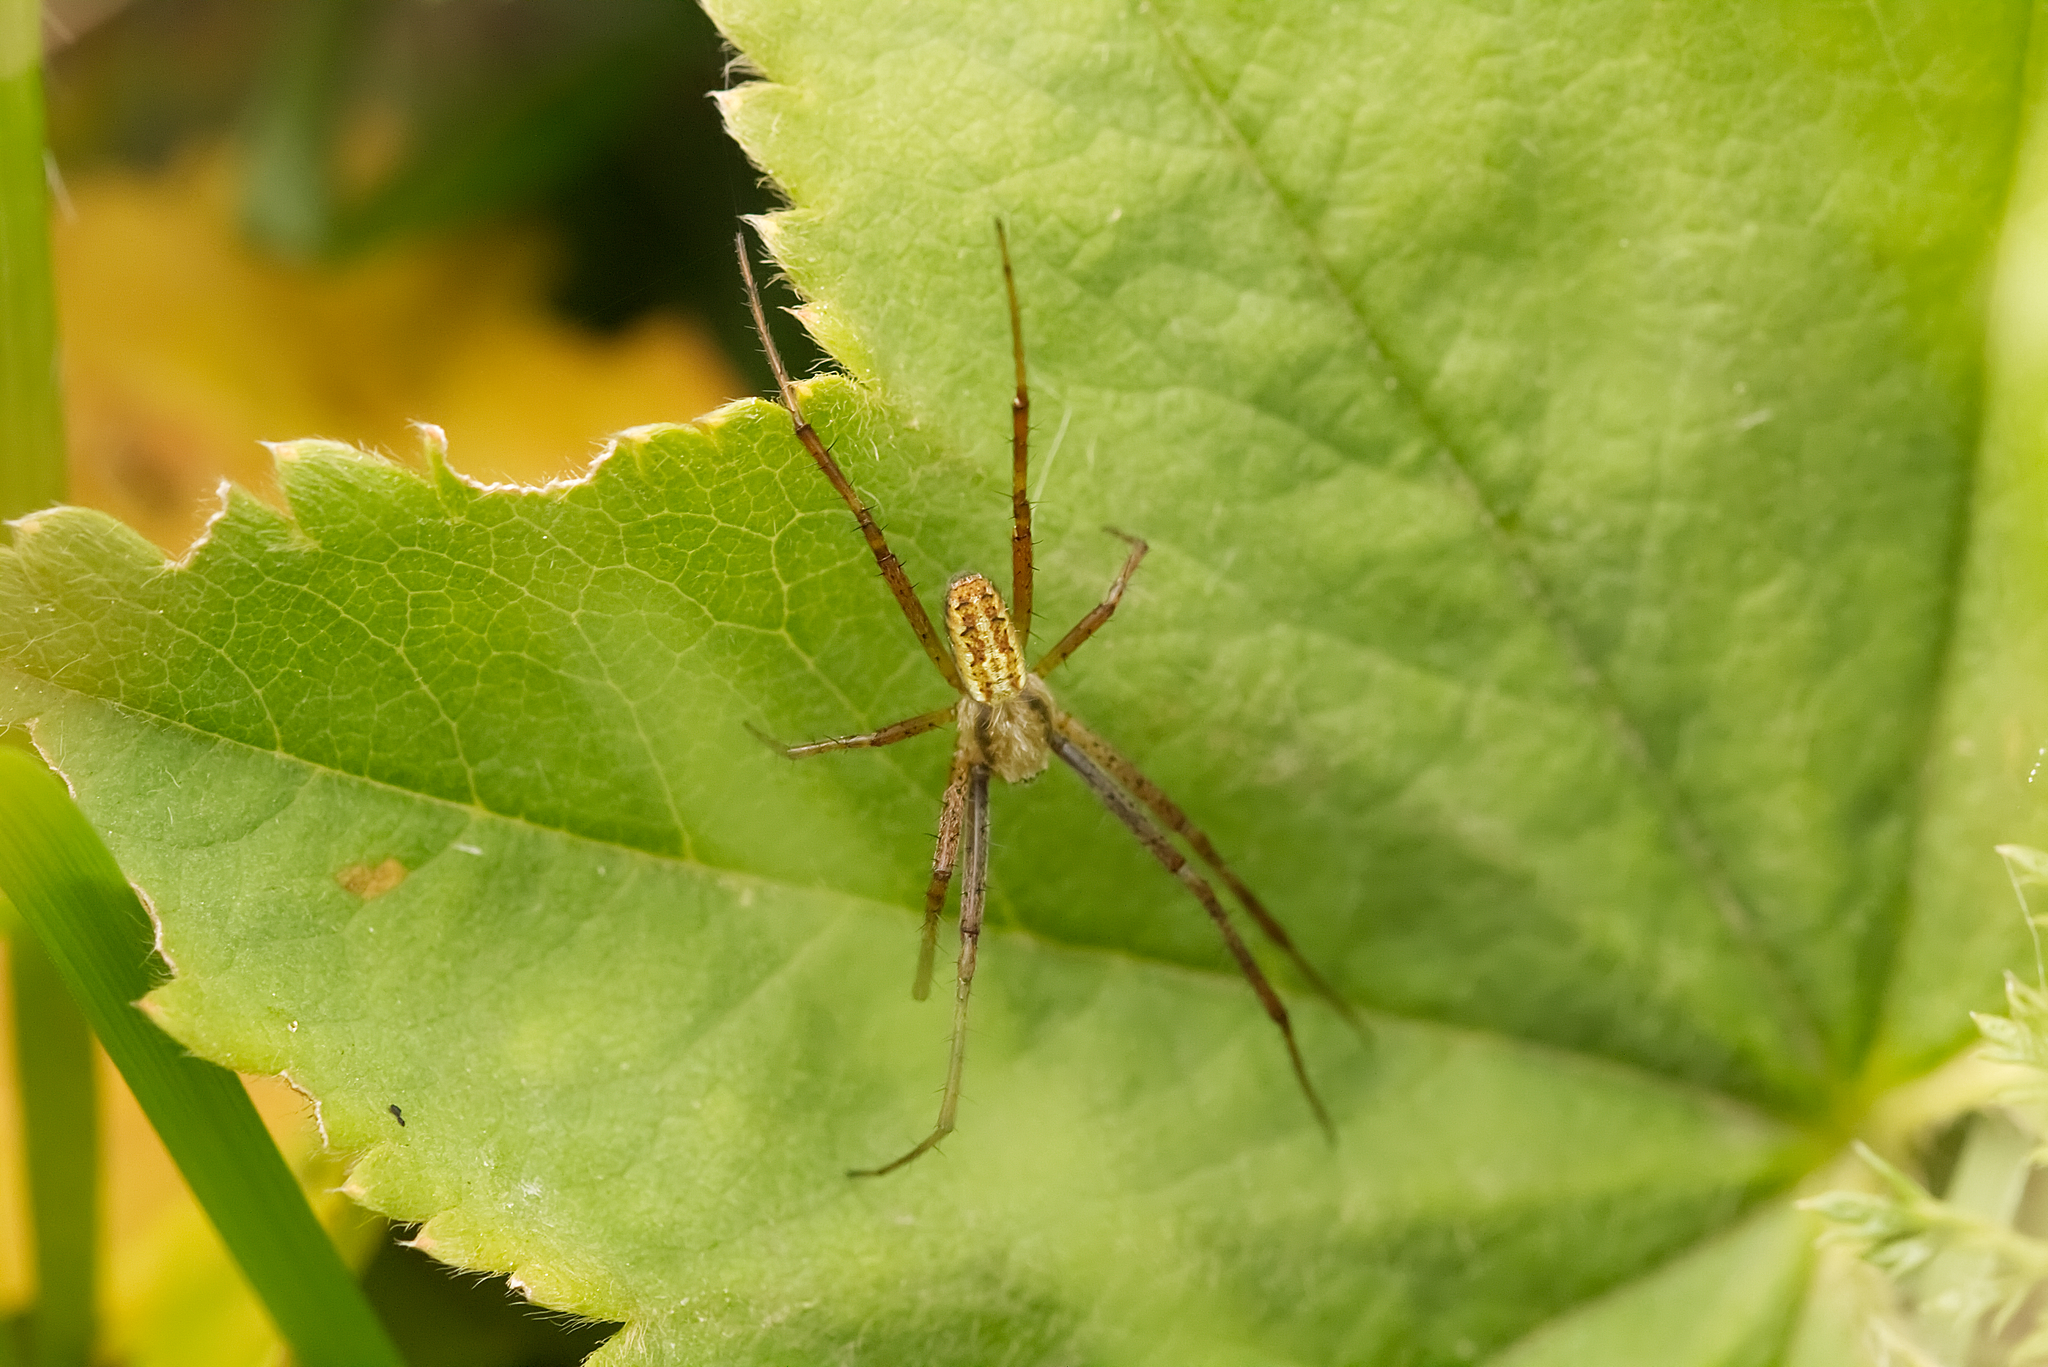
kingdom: Animalia
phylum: Arthropoda
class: Arachnida
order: Araneae
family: Araneidae
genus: Argiope
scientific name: Argiope bruennichi
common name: Wasp spider
